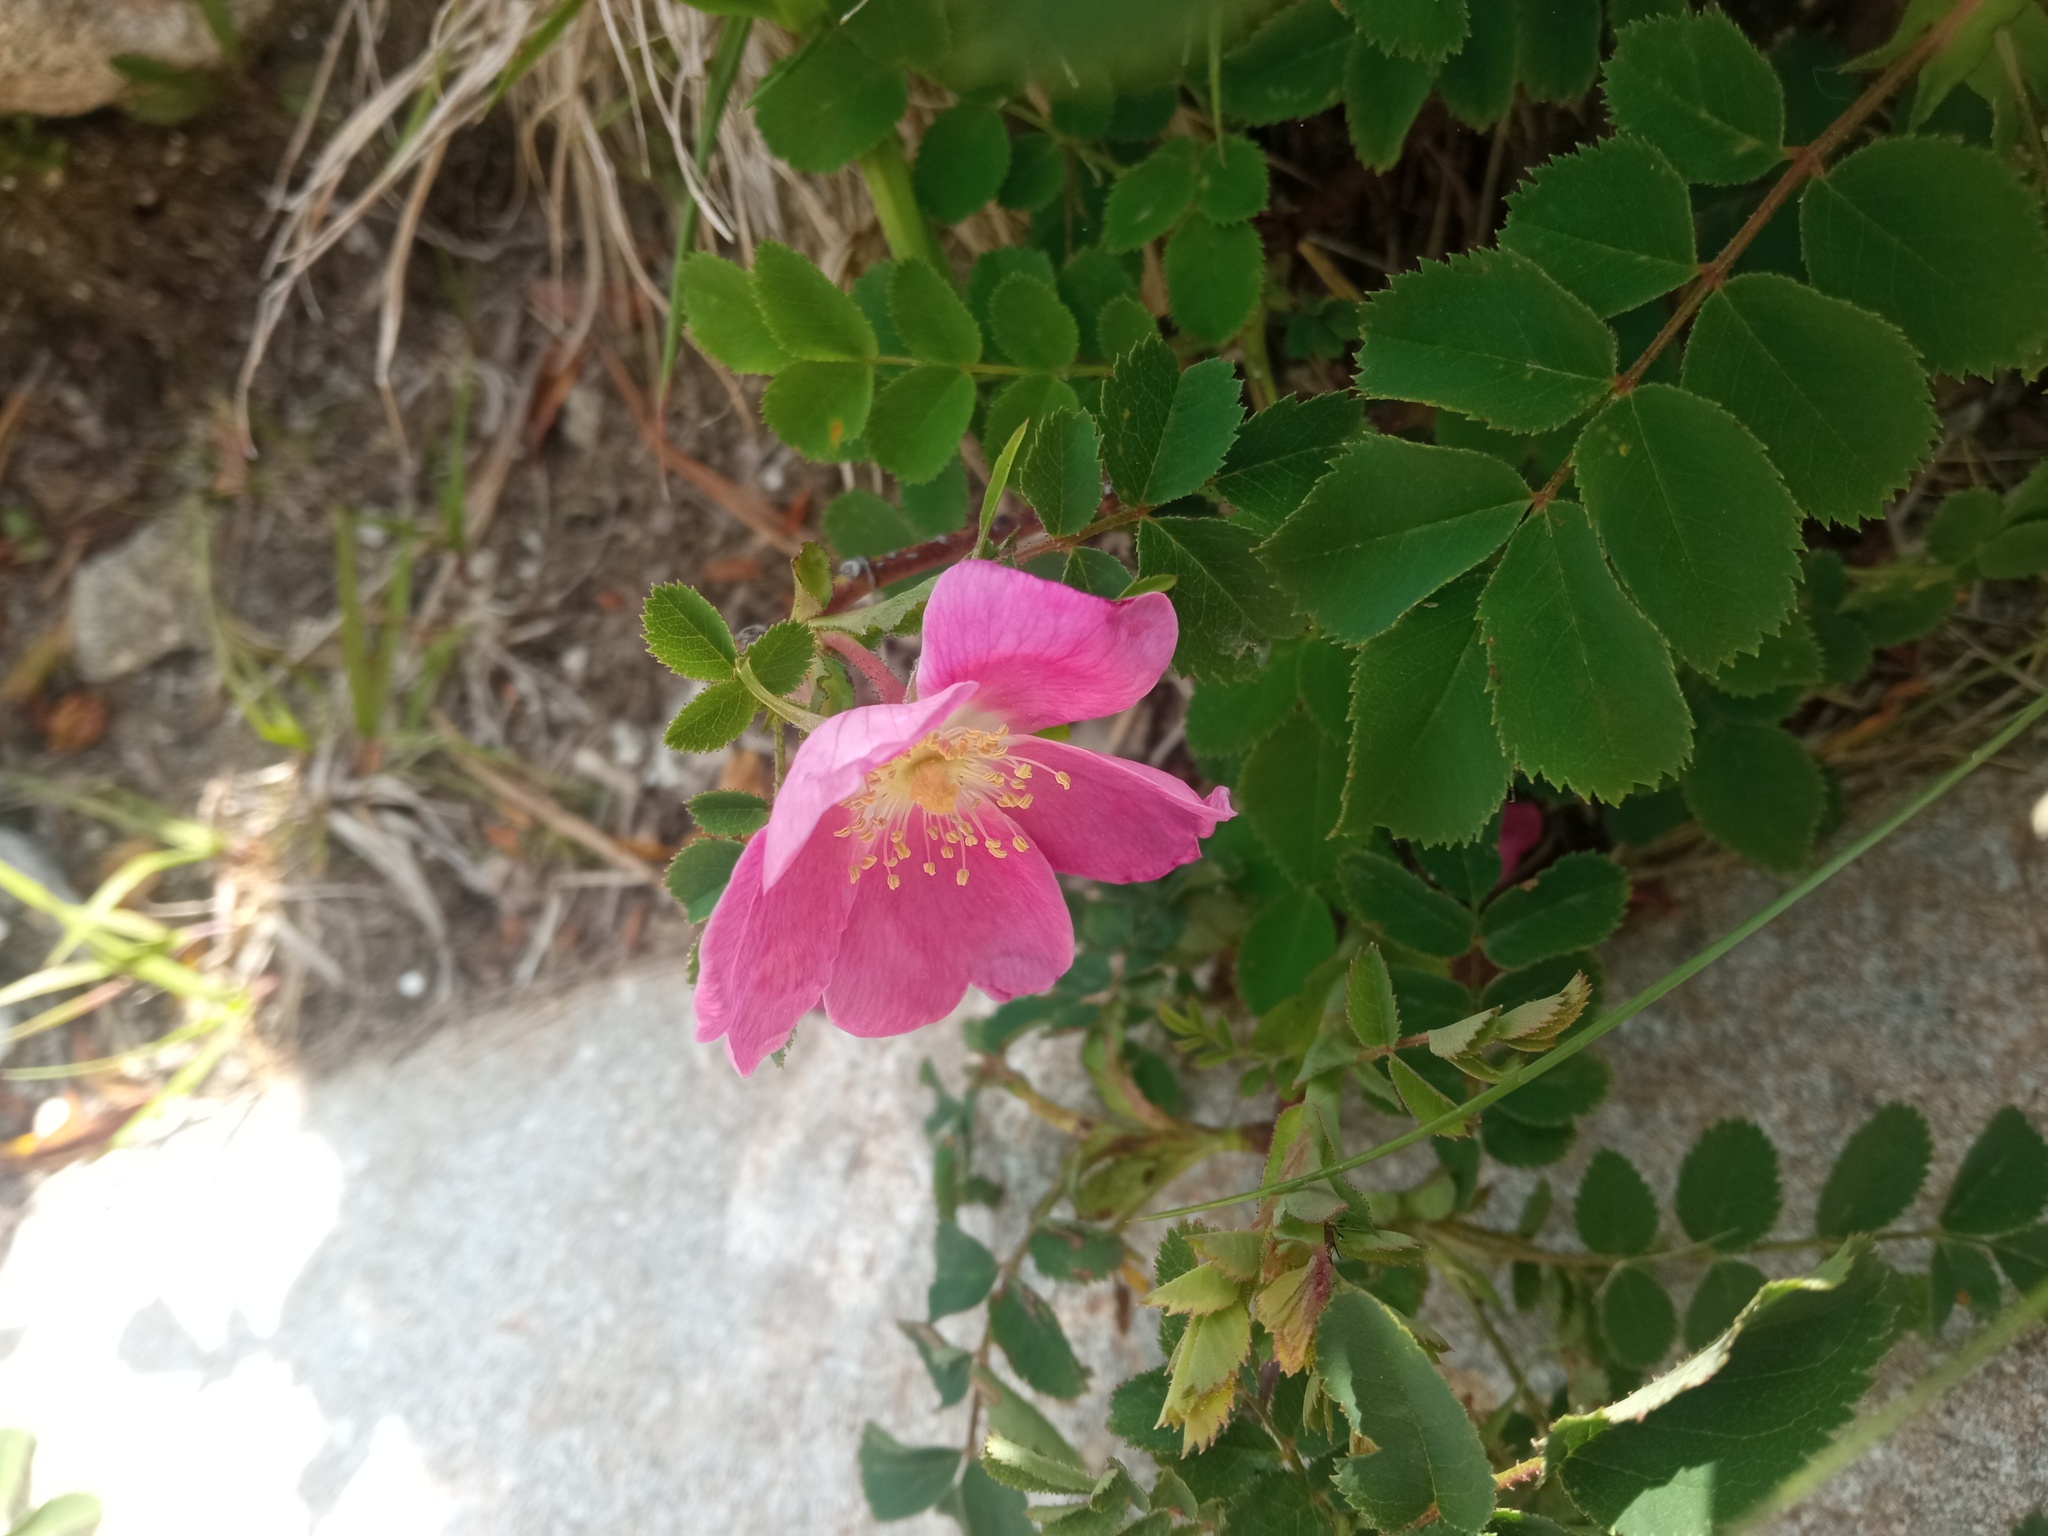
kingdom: Plantae
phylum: Tracheophyta
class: Magnoliopsida
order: Rosales
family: Rosaceae
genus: Rosa
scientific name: Rosa pendulina
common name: Alpine rose
